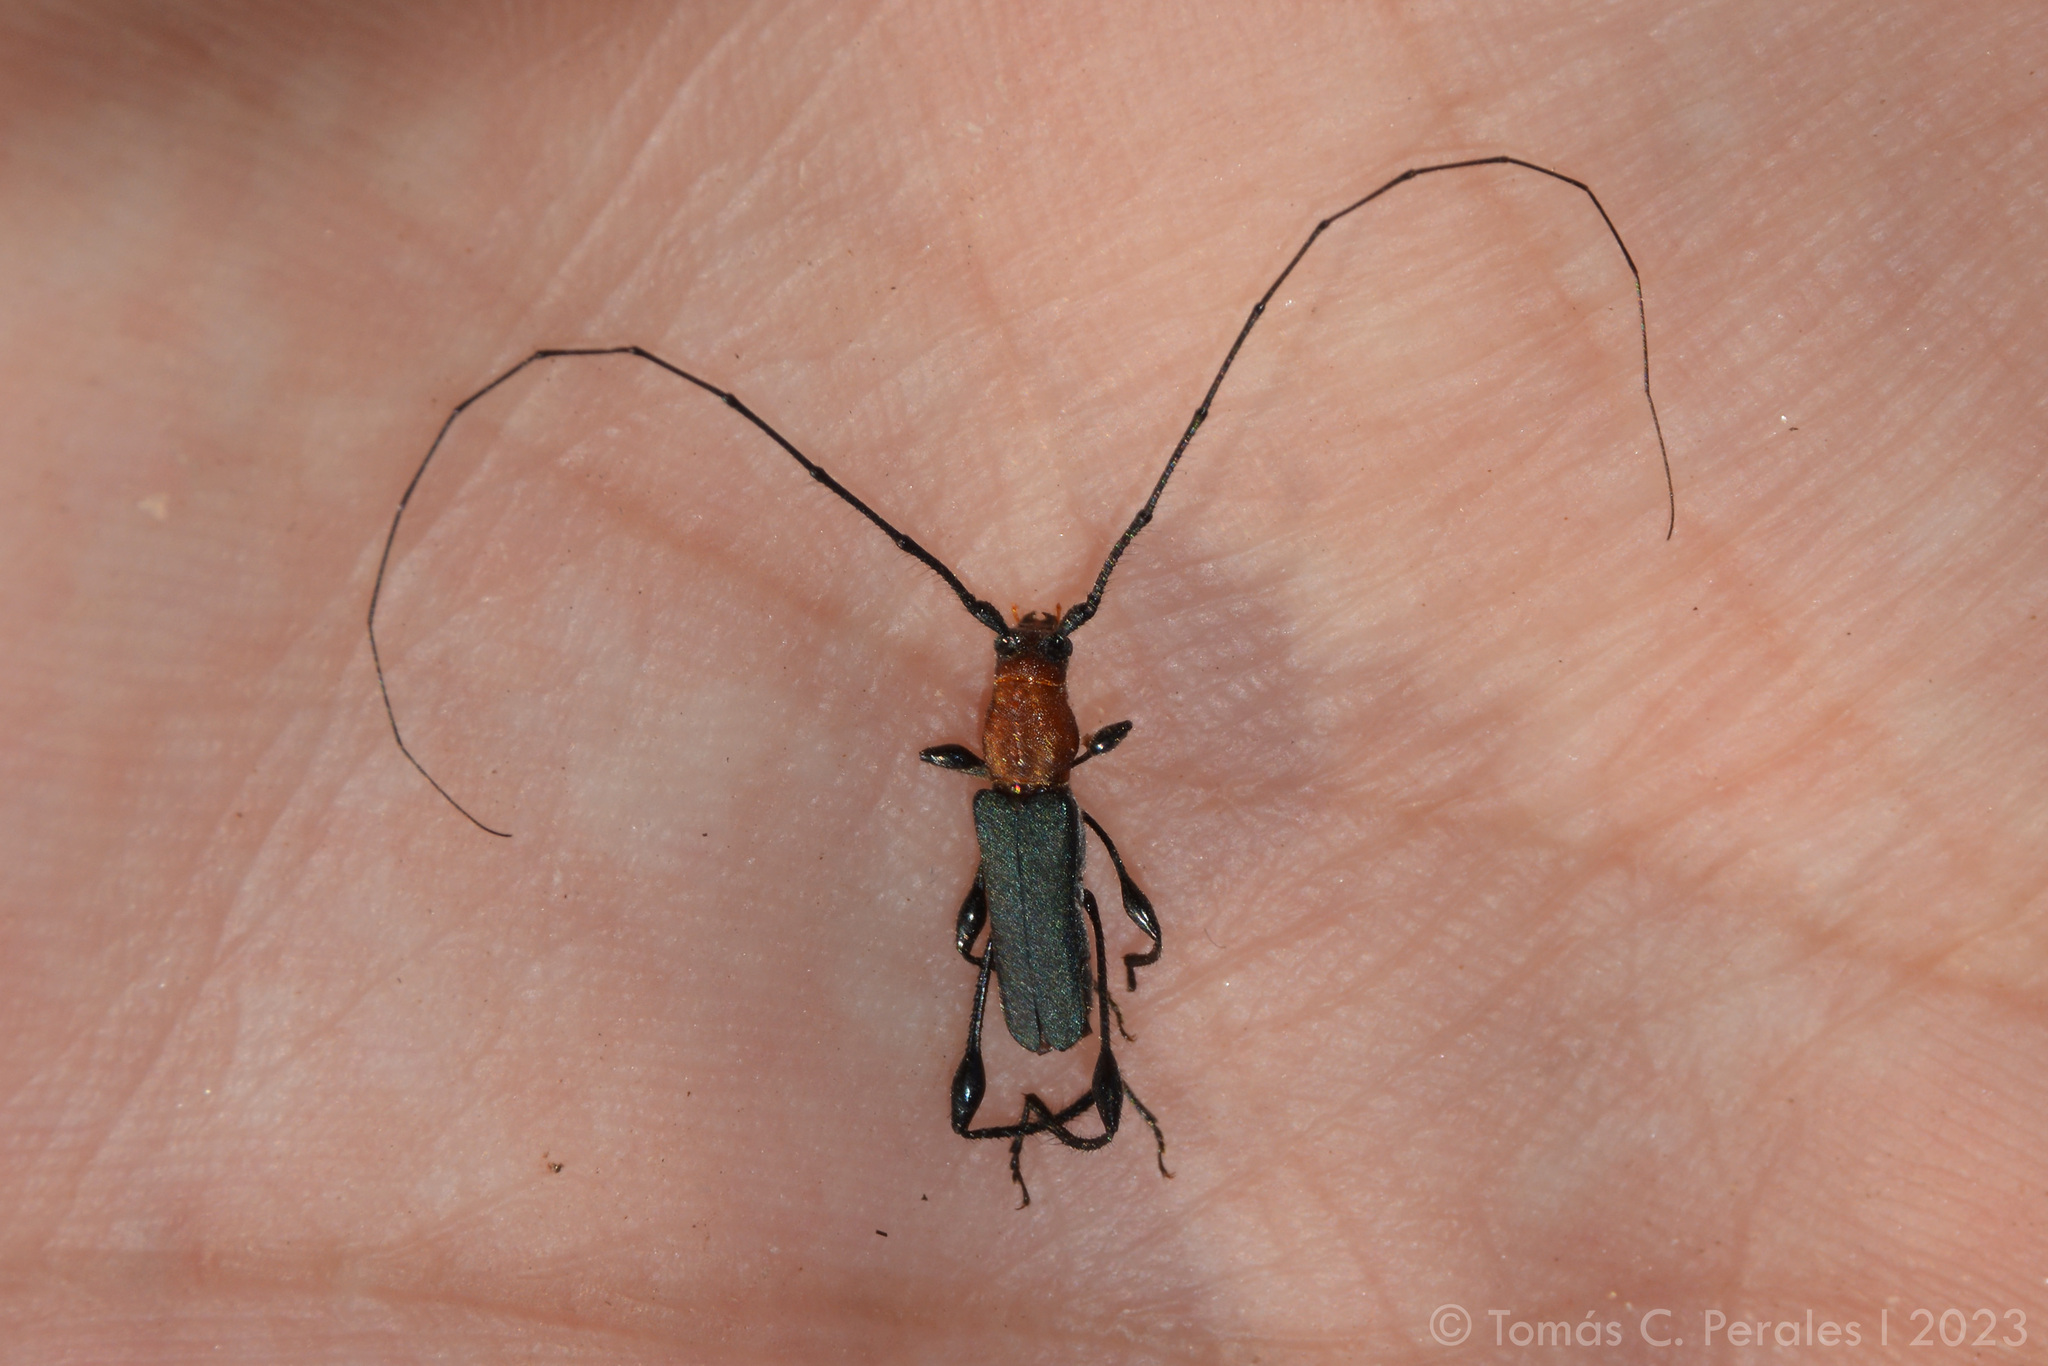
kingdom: Animalia
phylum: Arthropoda
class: Insecta
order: Coleoptera
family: Cerambycidae
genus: Ischionodonta
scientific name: Ischionodonta platensis
